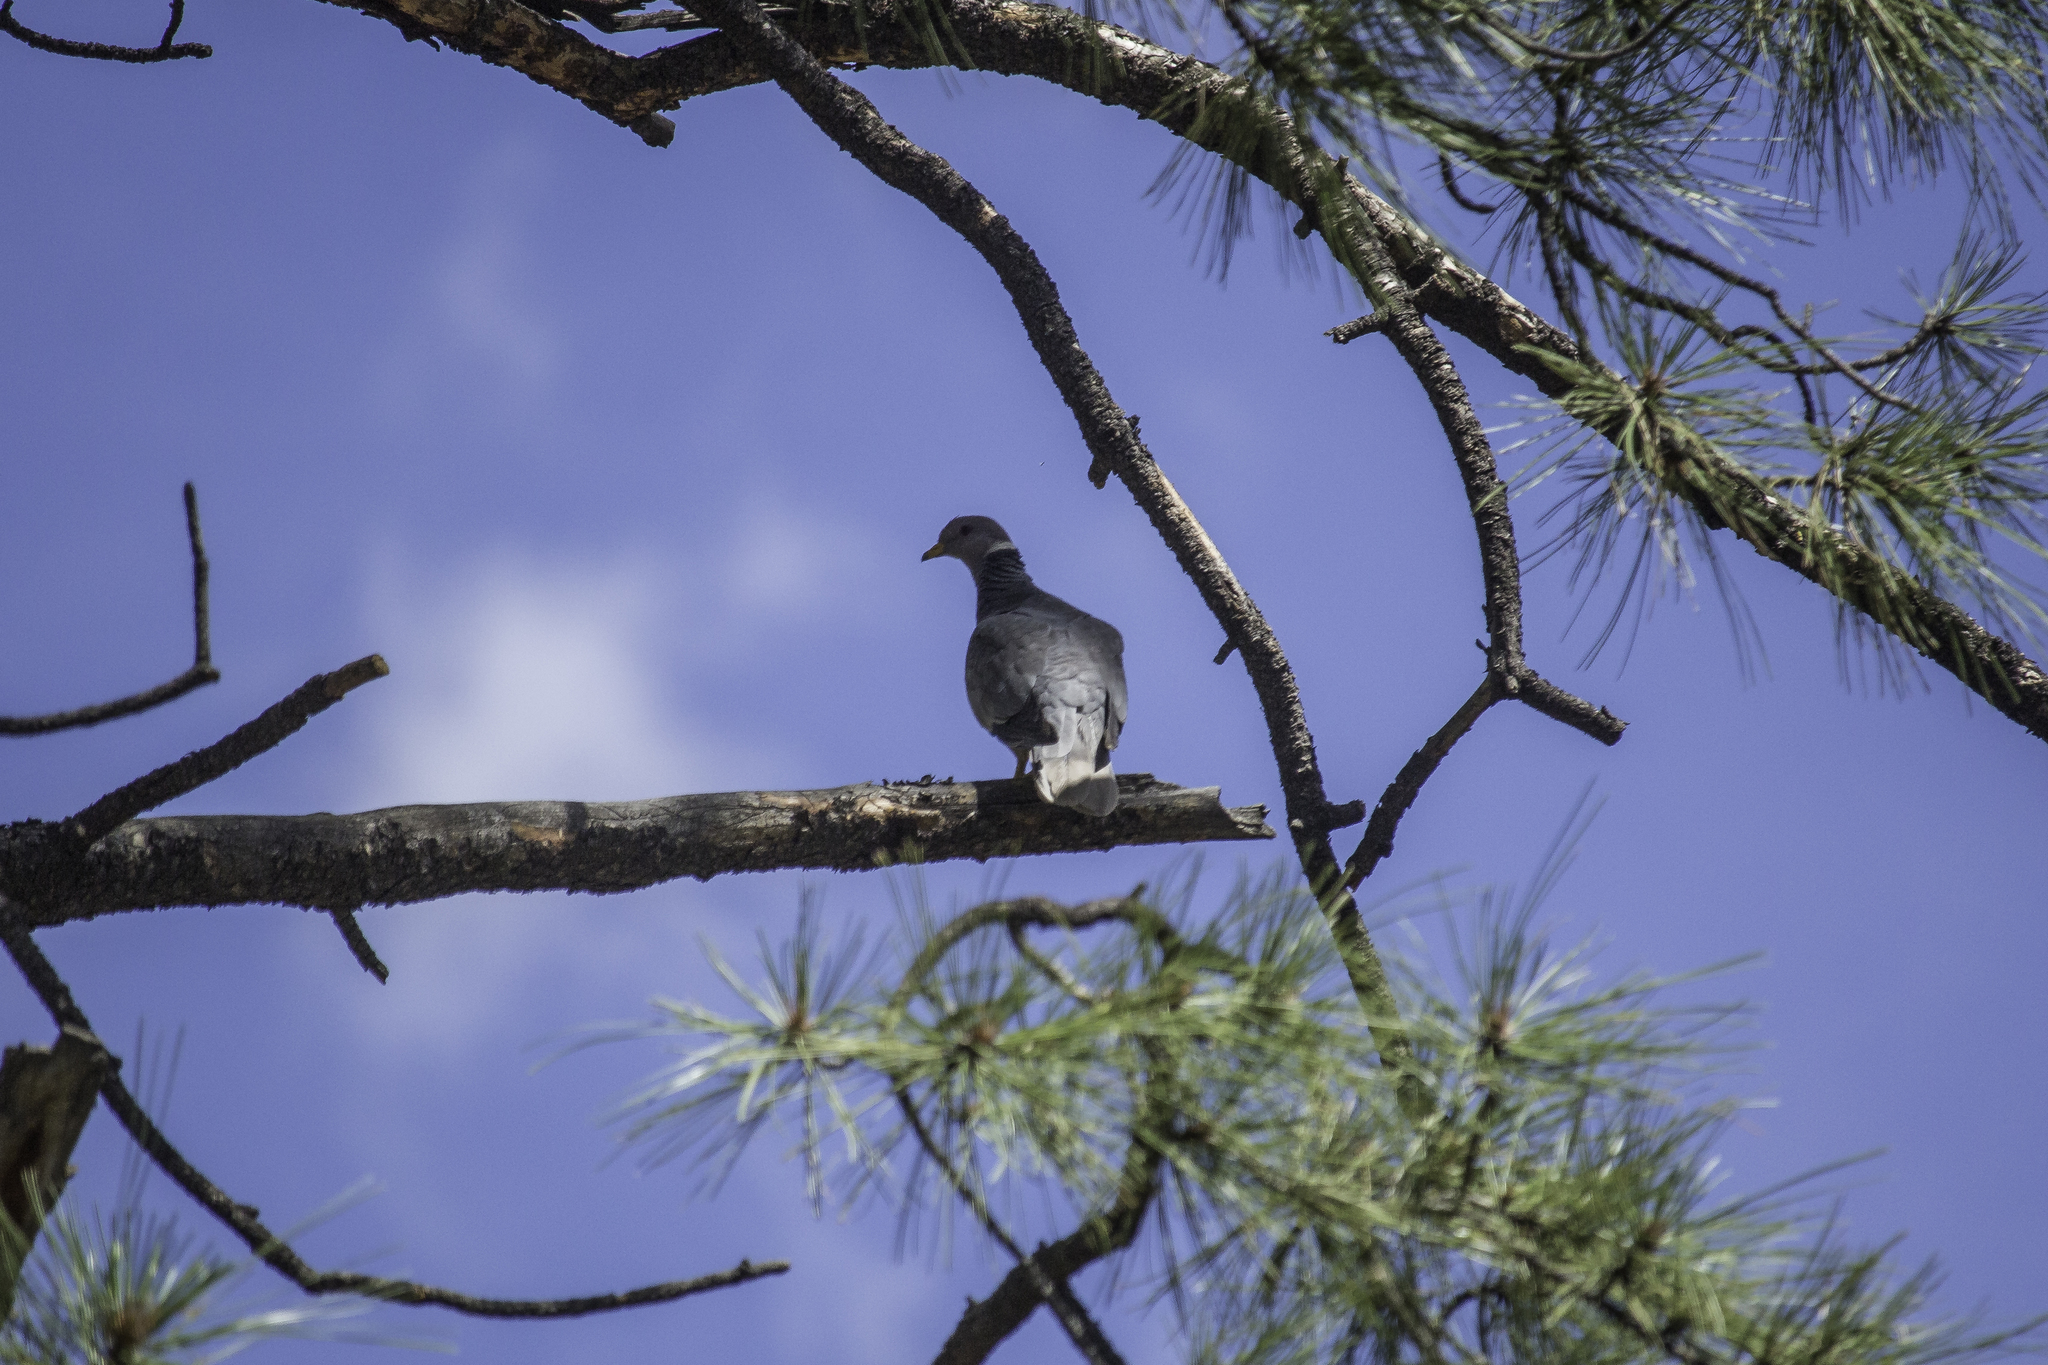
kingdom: Animalia
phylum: Chordata
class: Aves
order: Columbiformes
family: Columbidae
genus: Patagioenas
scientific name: Patagioenas fasciata
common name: Band-tailed pigeon
